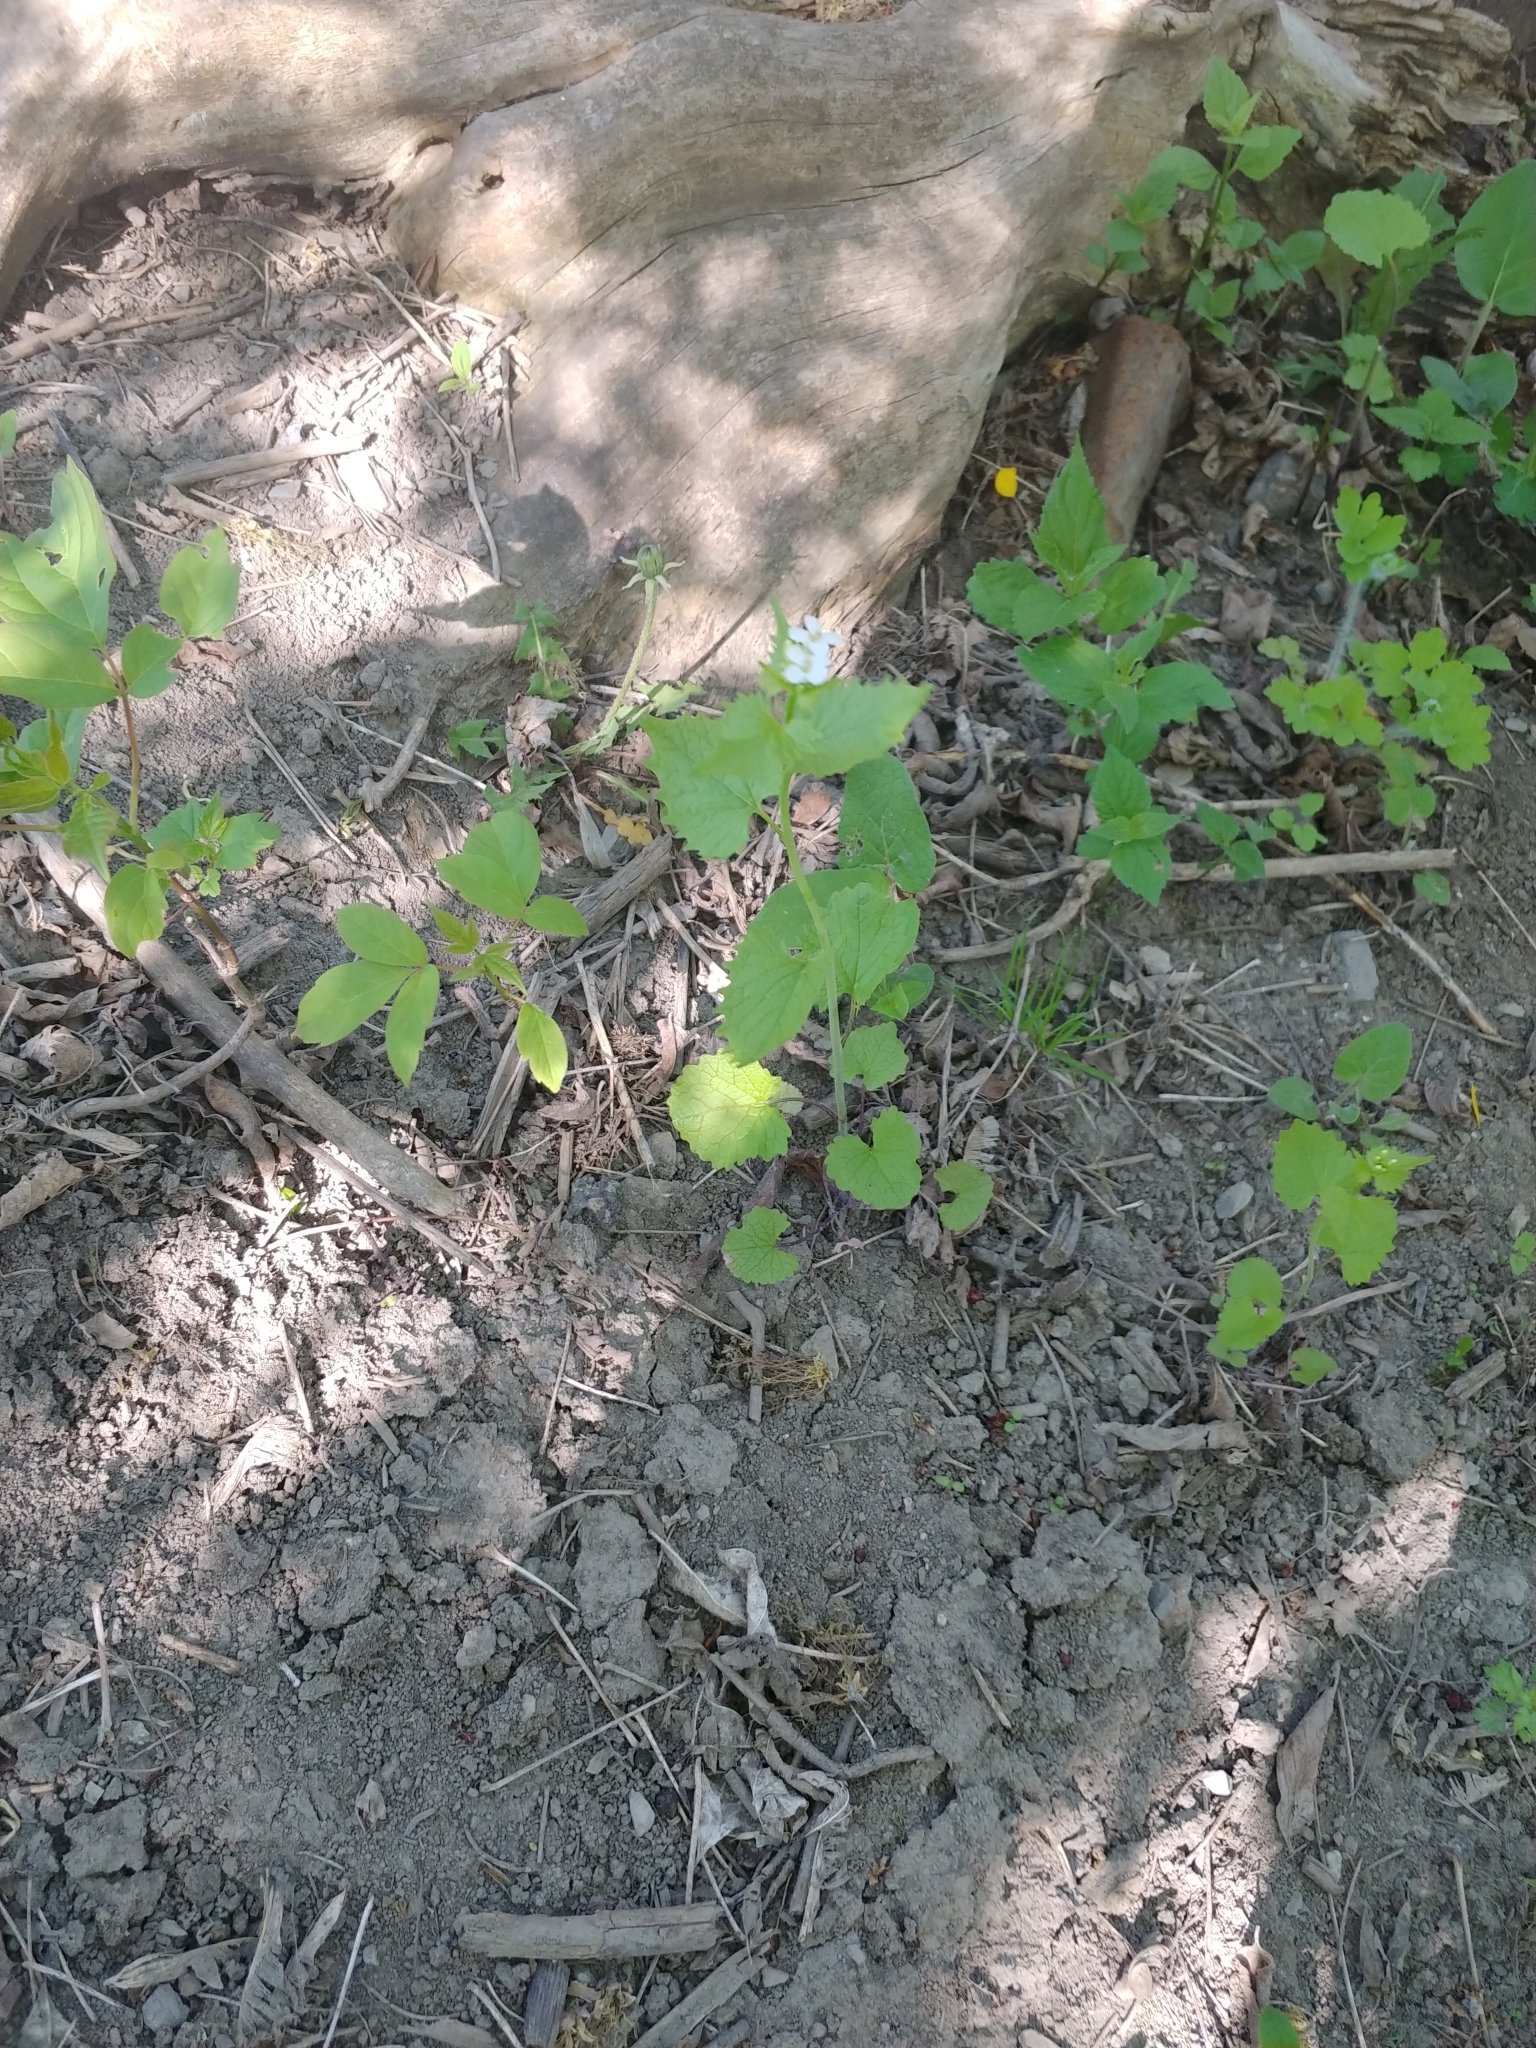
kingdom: Plantae
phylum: Tracheophyta
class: Magnoliopsida
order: Brassicales
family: Brassicaceae
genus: Alliaria
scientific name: Alliaria petiolata
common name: Garlic mustard
